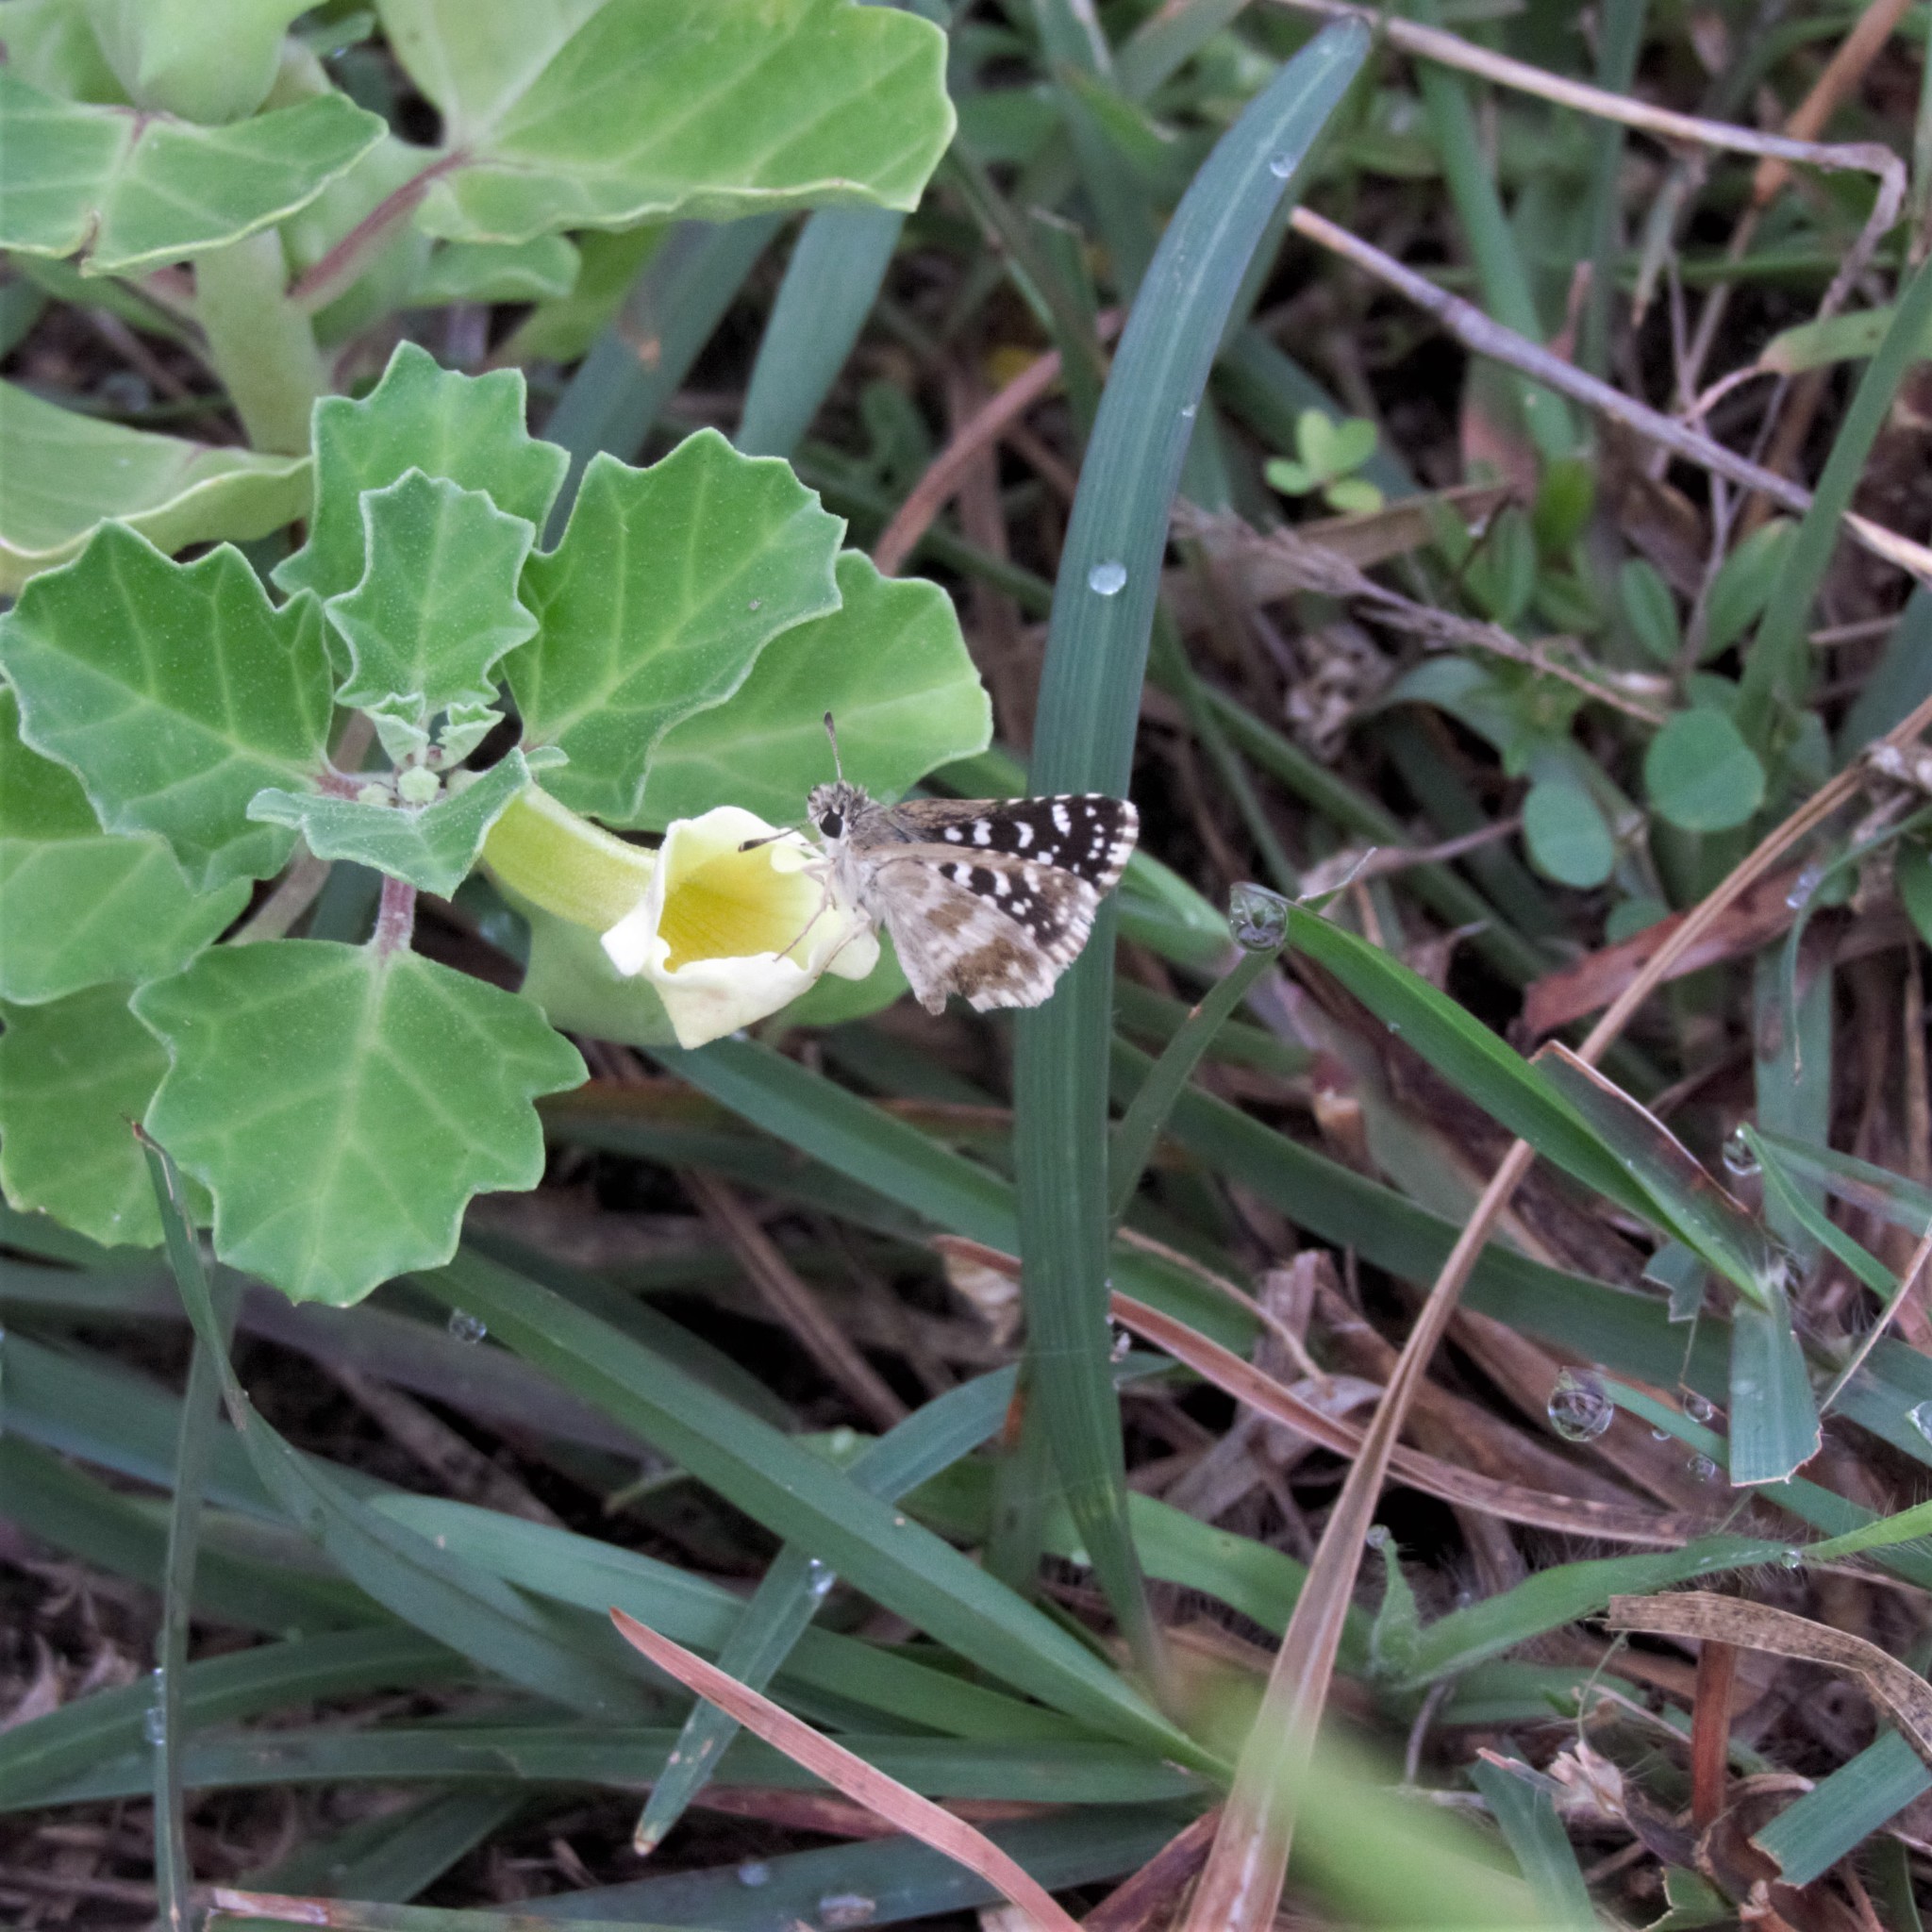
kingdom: Animalia
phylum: Arthropoda
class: Insecta
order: Lepidoptera
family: Hesperiidae
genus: Spialia
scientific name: Spialia galba
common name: Indian skipper
